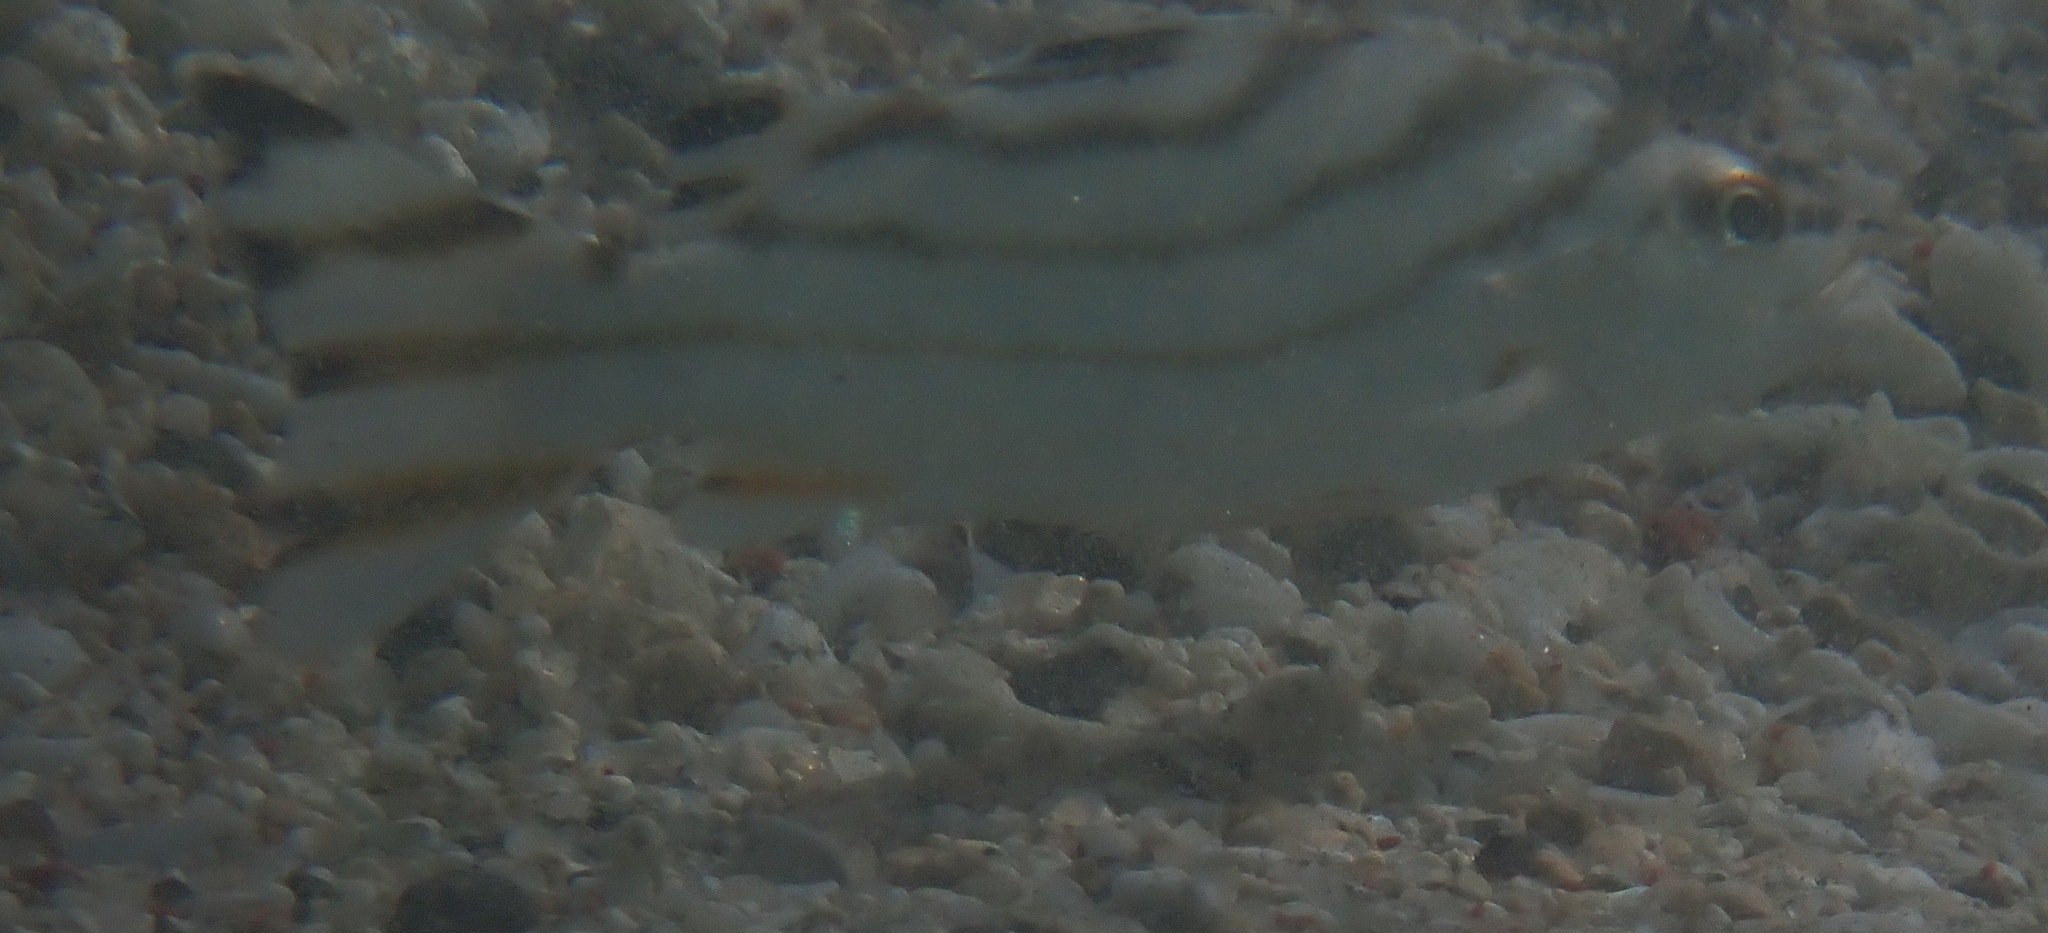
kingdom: Animalia
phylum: Chordata
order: Perciformes
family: Terapontidae
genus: Terapon
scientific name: Terapon jarbua
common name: Jarbua terapon
